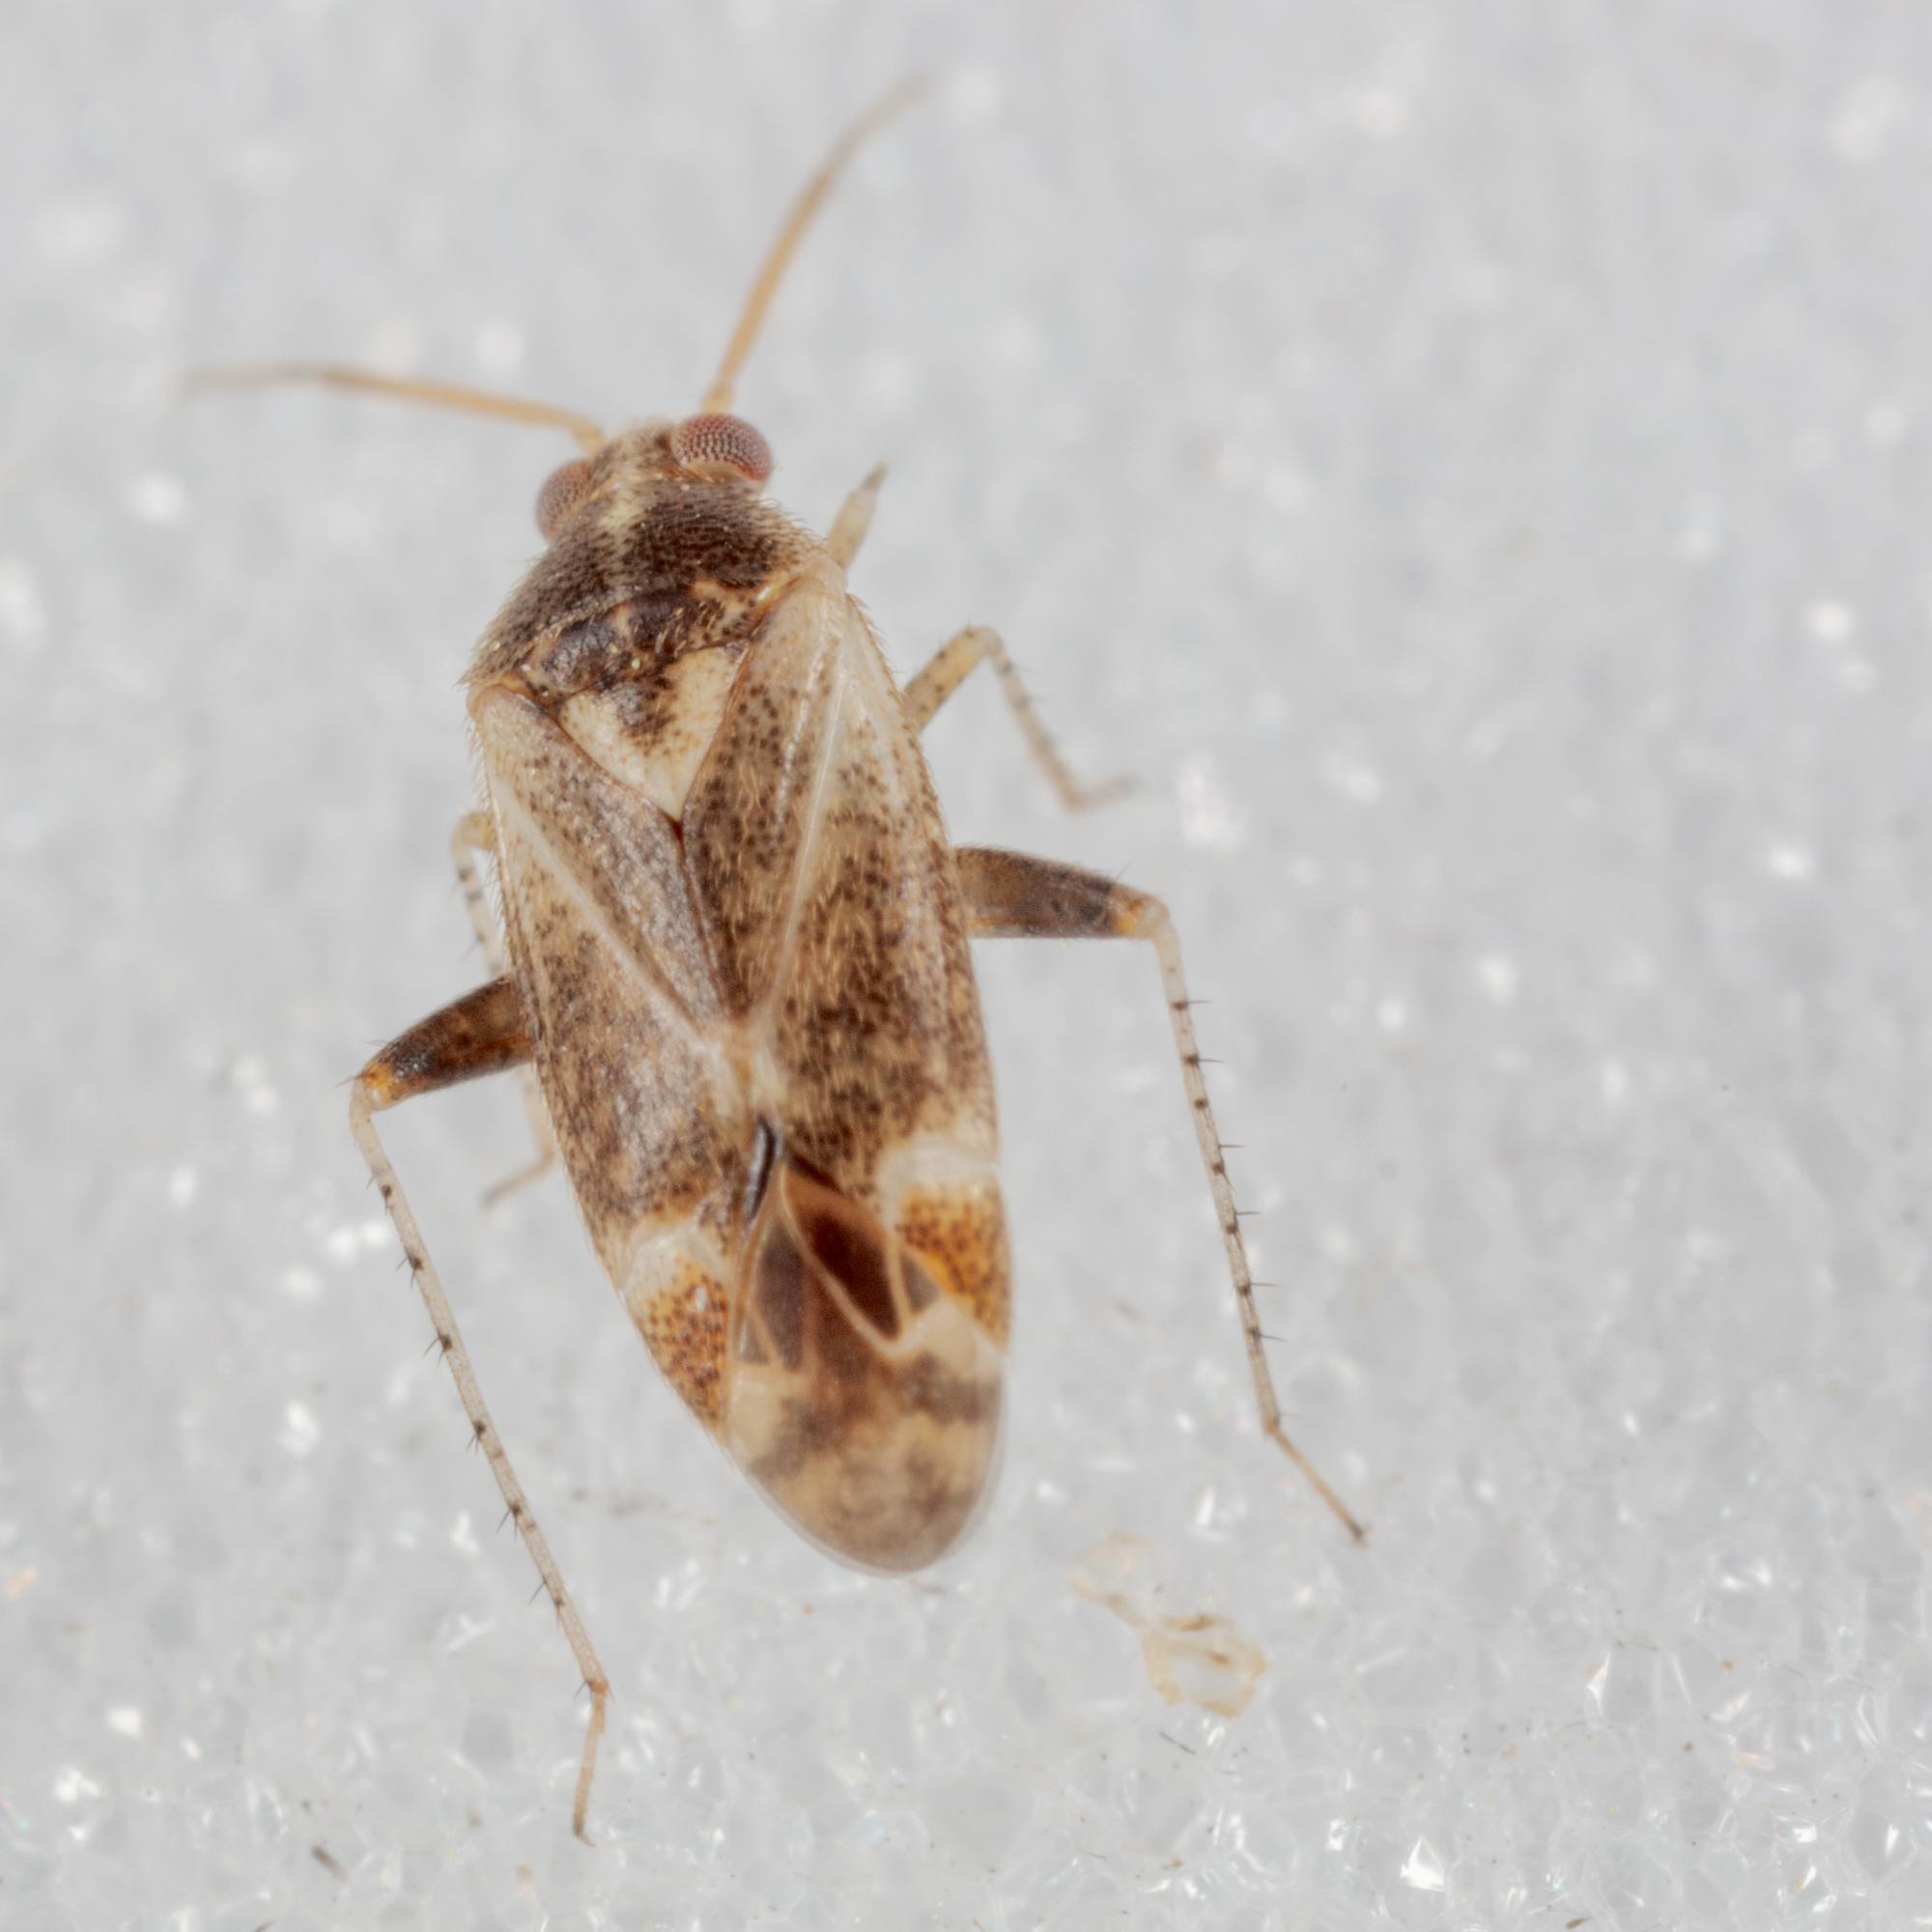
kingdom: Animalia
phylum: Arthropoda
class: Insecta
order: Hemiptera
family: Miridae
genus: Hamatophylus
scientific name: Hamatophylus guttulosus
